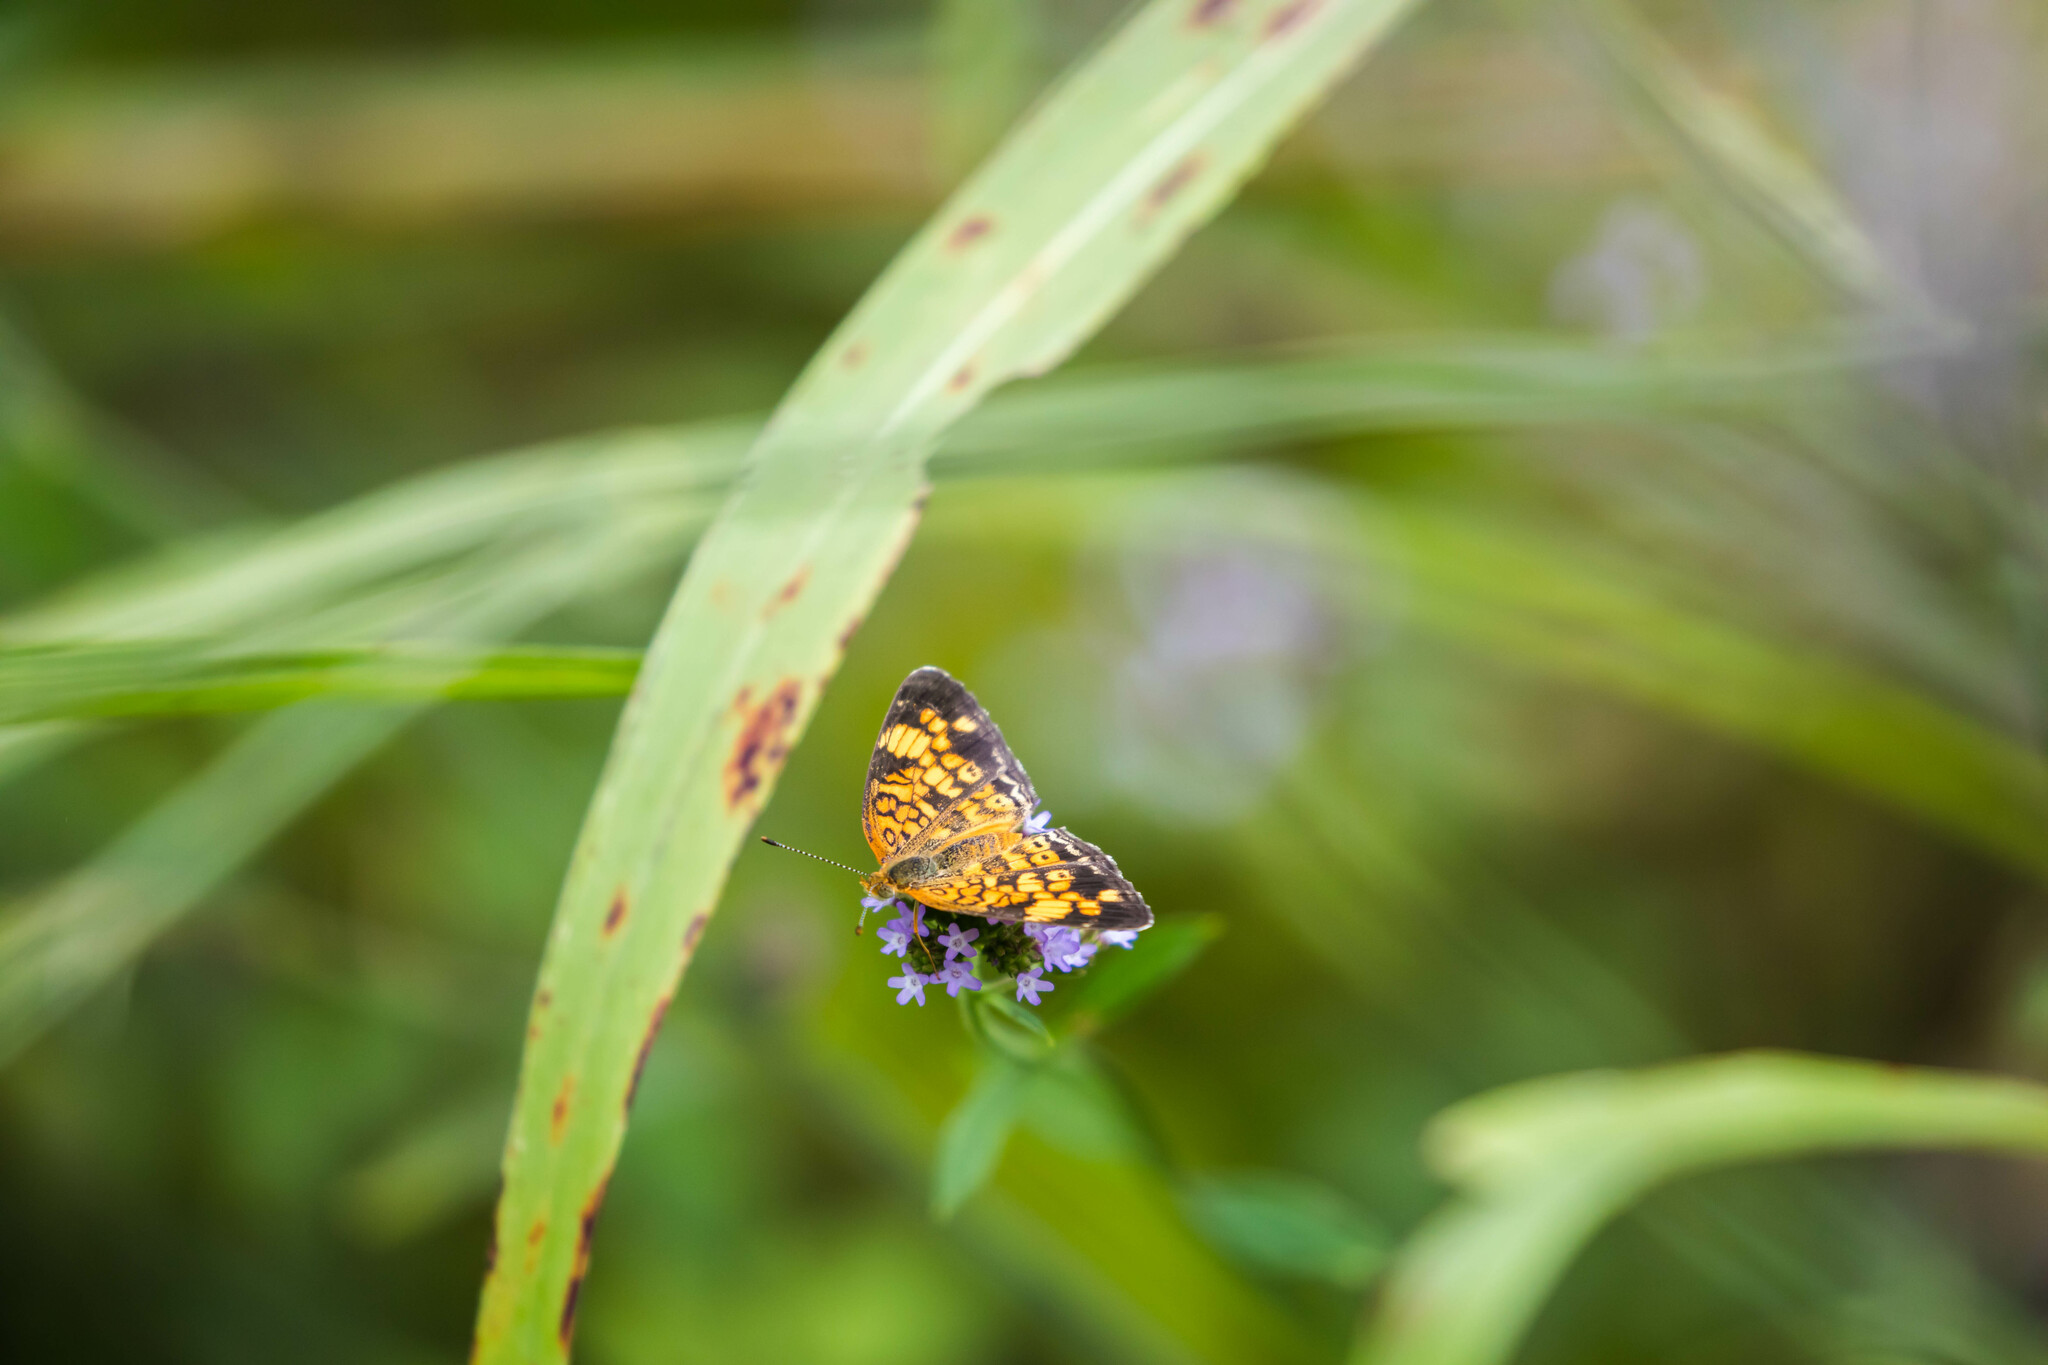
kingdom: Animalia
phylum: Arthropoda
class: Insecta
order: Lepidoptera
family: Nymphalidae
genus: Phyciodes
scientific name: Phyciodes tharos
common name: Pearl crescent
